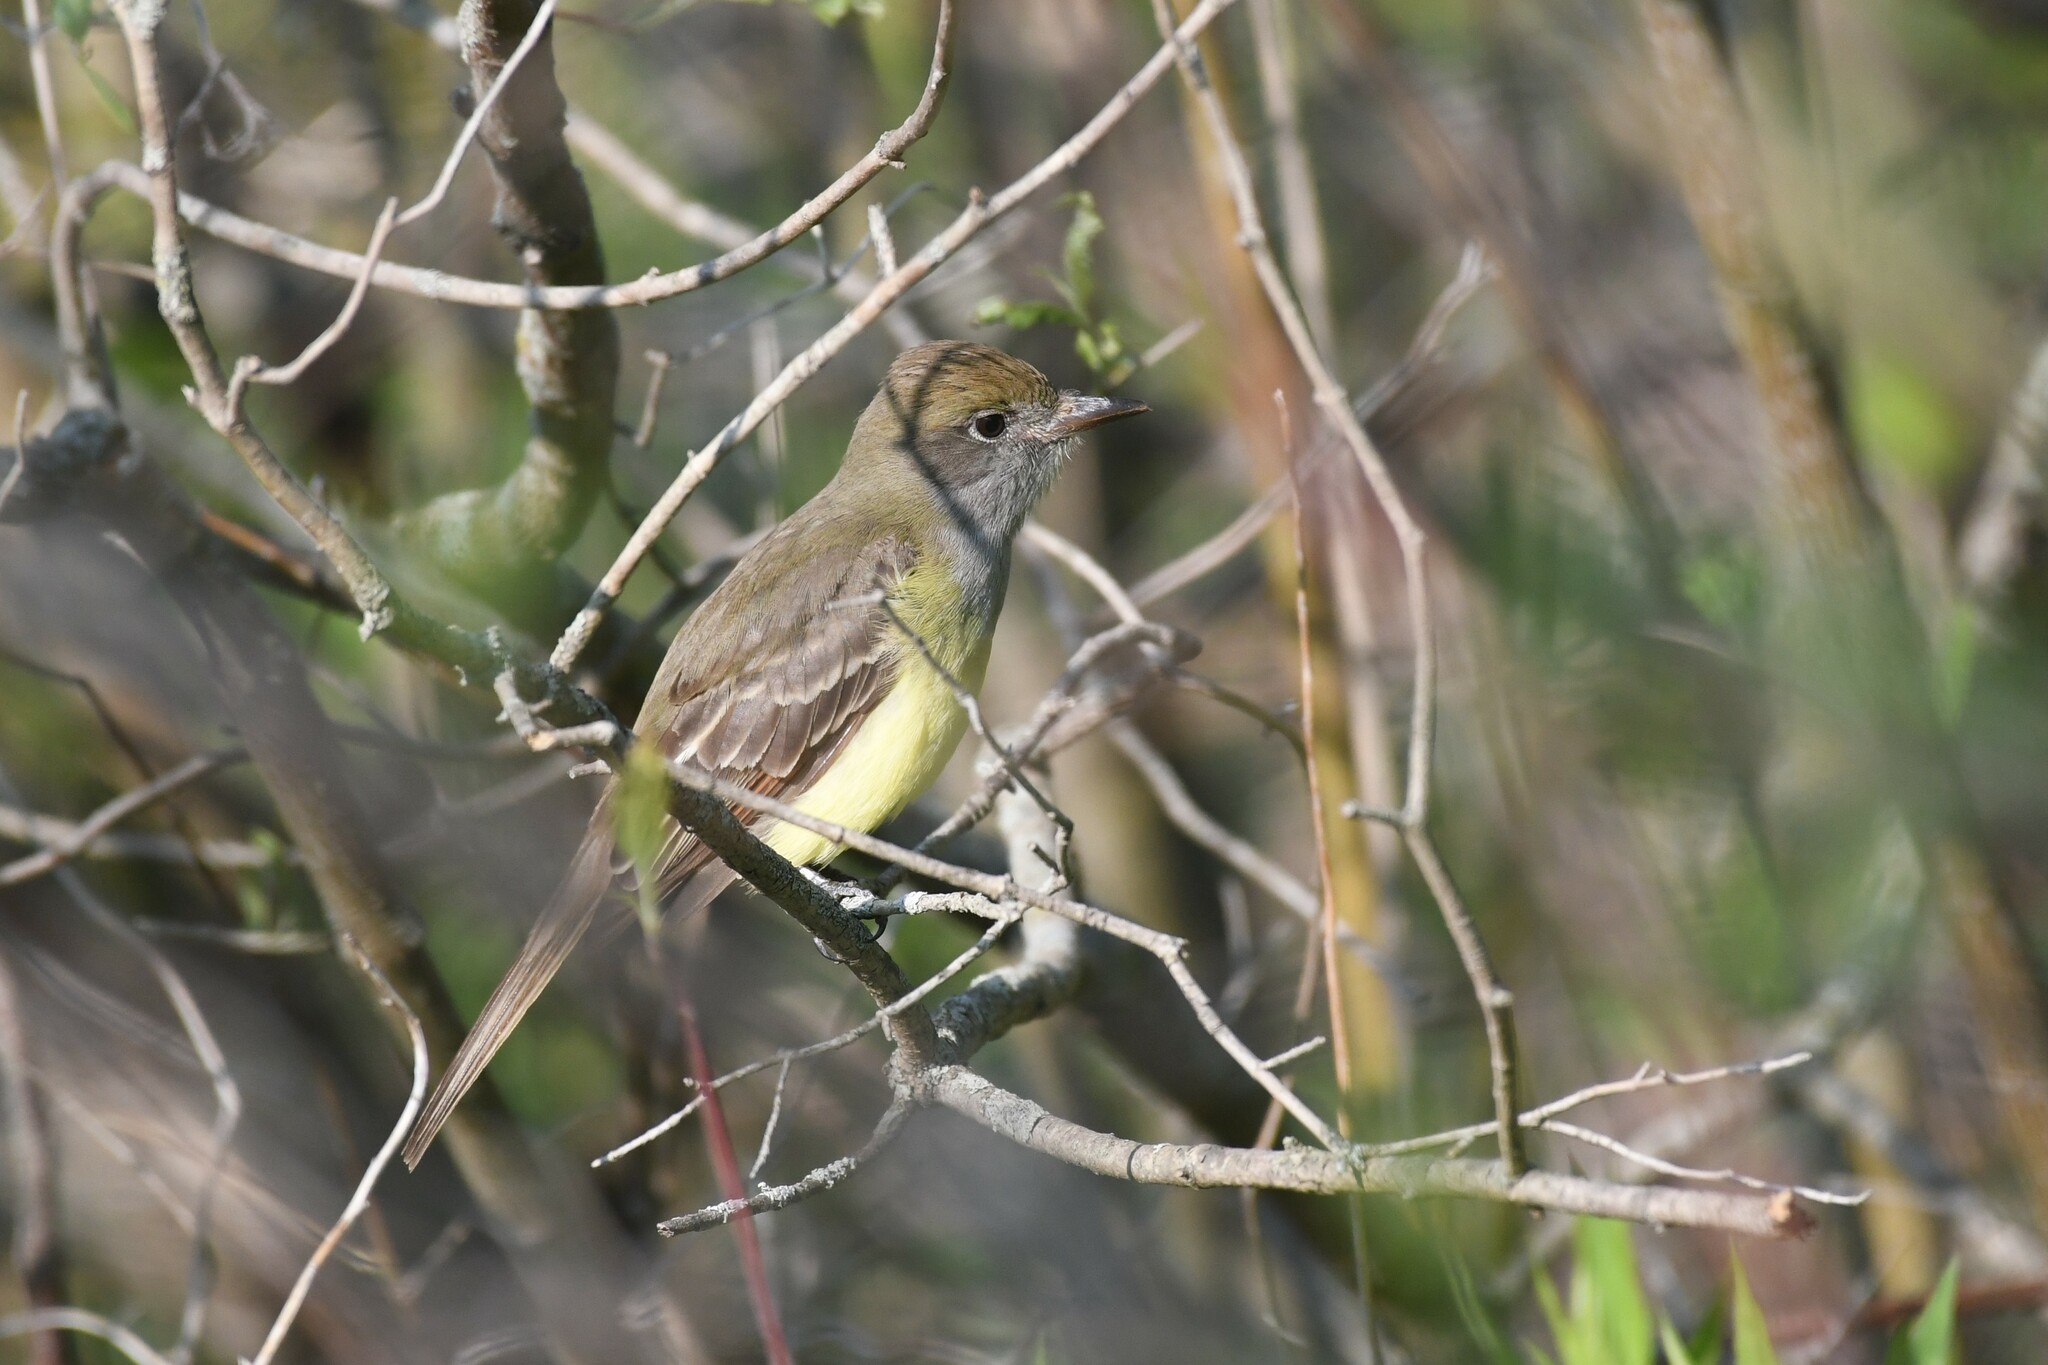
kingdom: Animalia
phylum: Chordata
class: Aves
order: Passeriformes
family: Tyrannidae
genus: Myiarchus
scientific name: Myiarchus crinitus
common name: Great crested flycatcher
